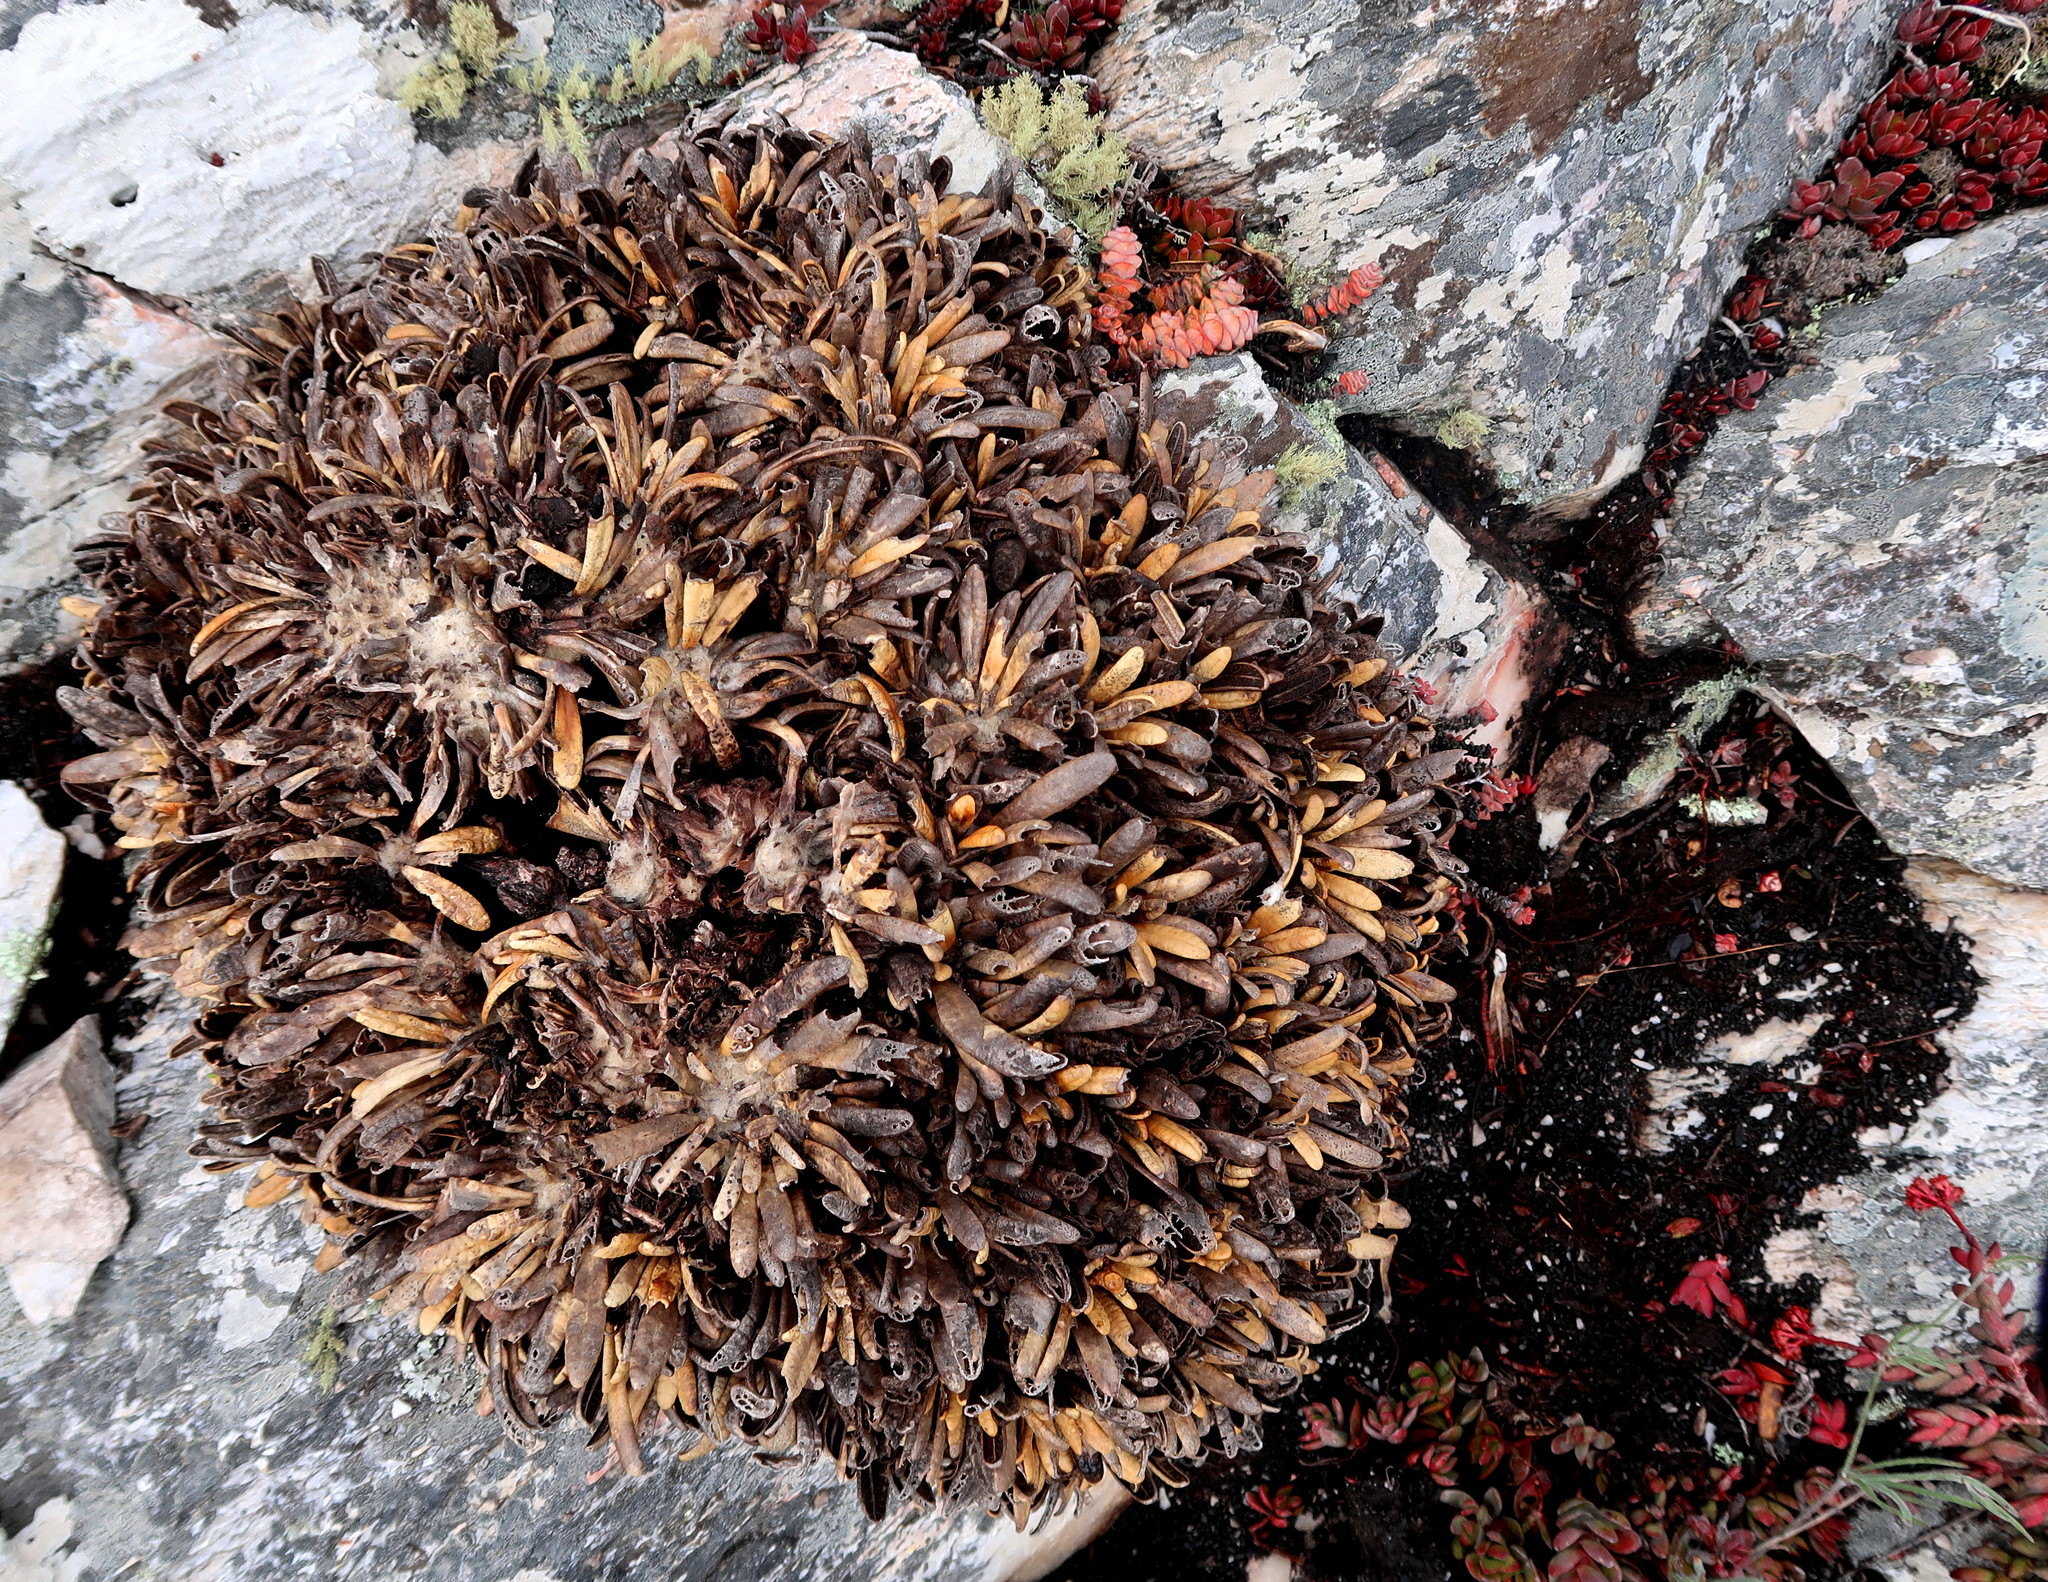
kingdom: Plantae
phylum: Tracheophyta
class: Magnoliopsida
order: Asterales
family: Asteraceae
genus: Oldenburgia
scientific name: Oldenburgia paradoxa
